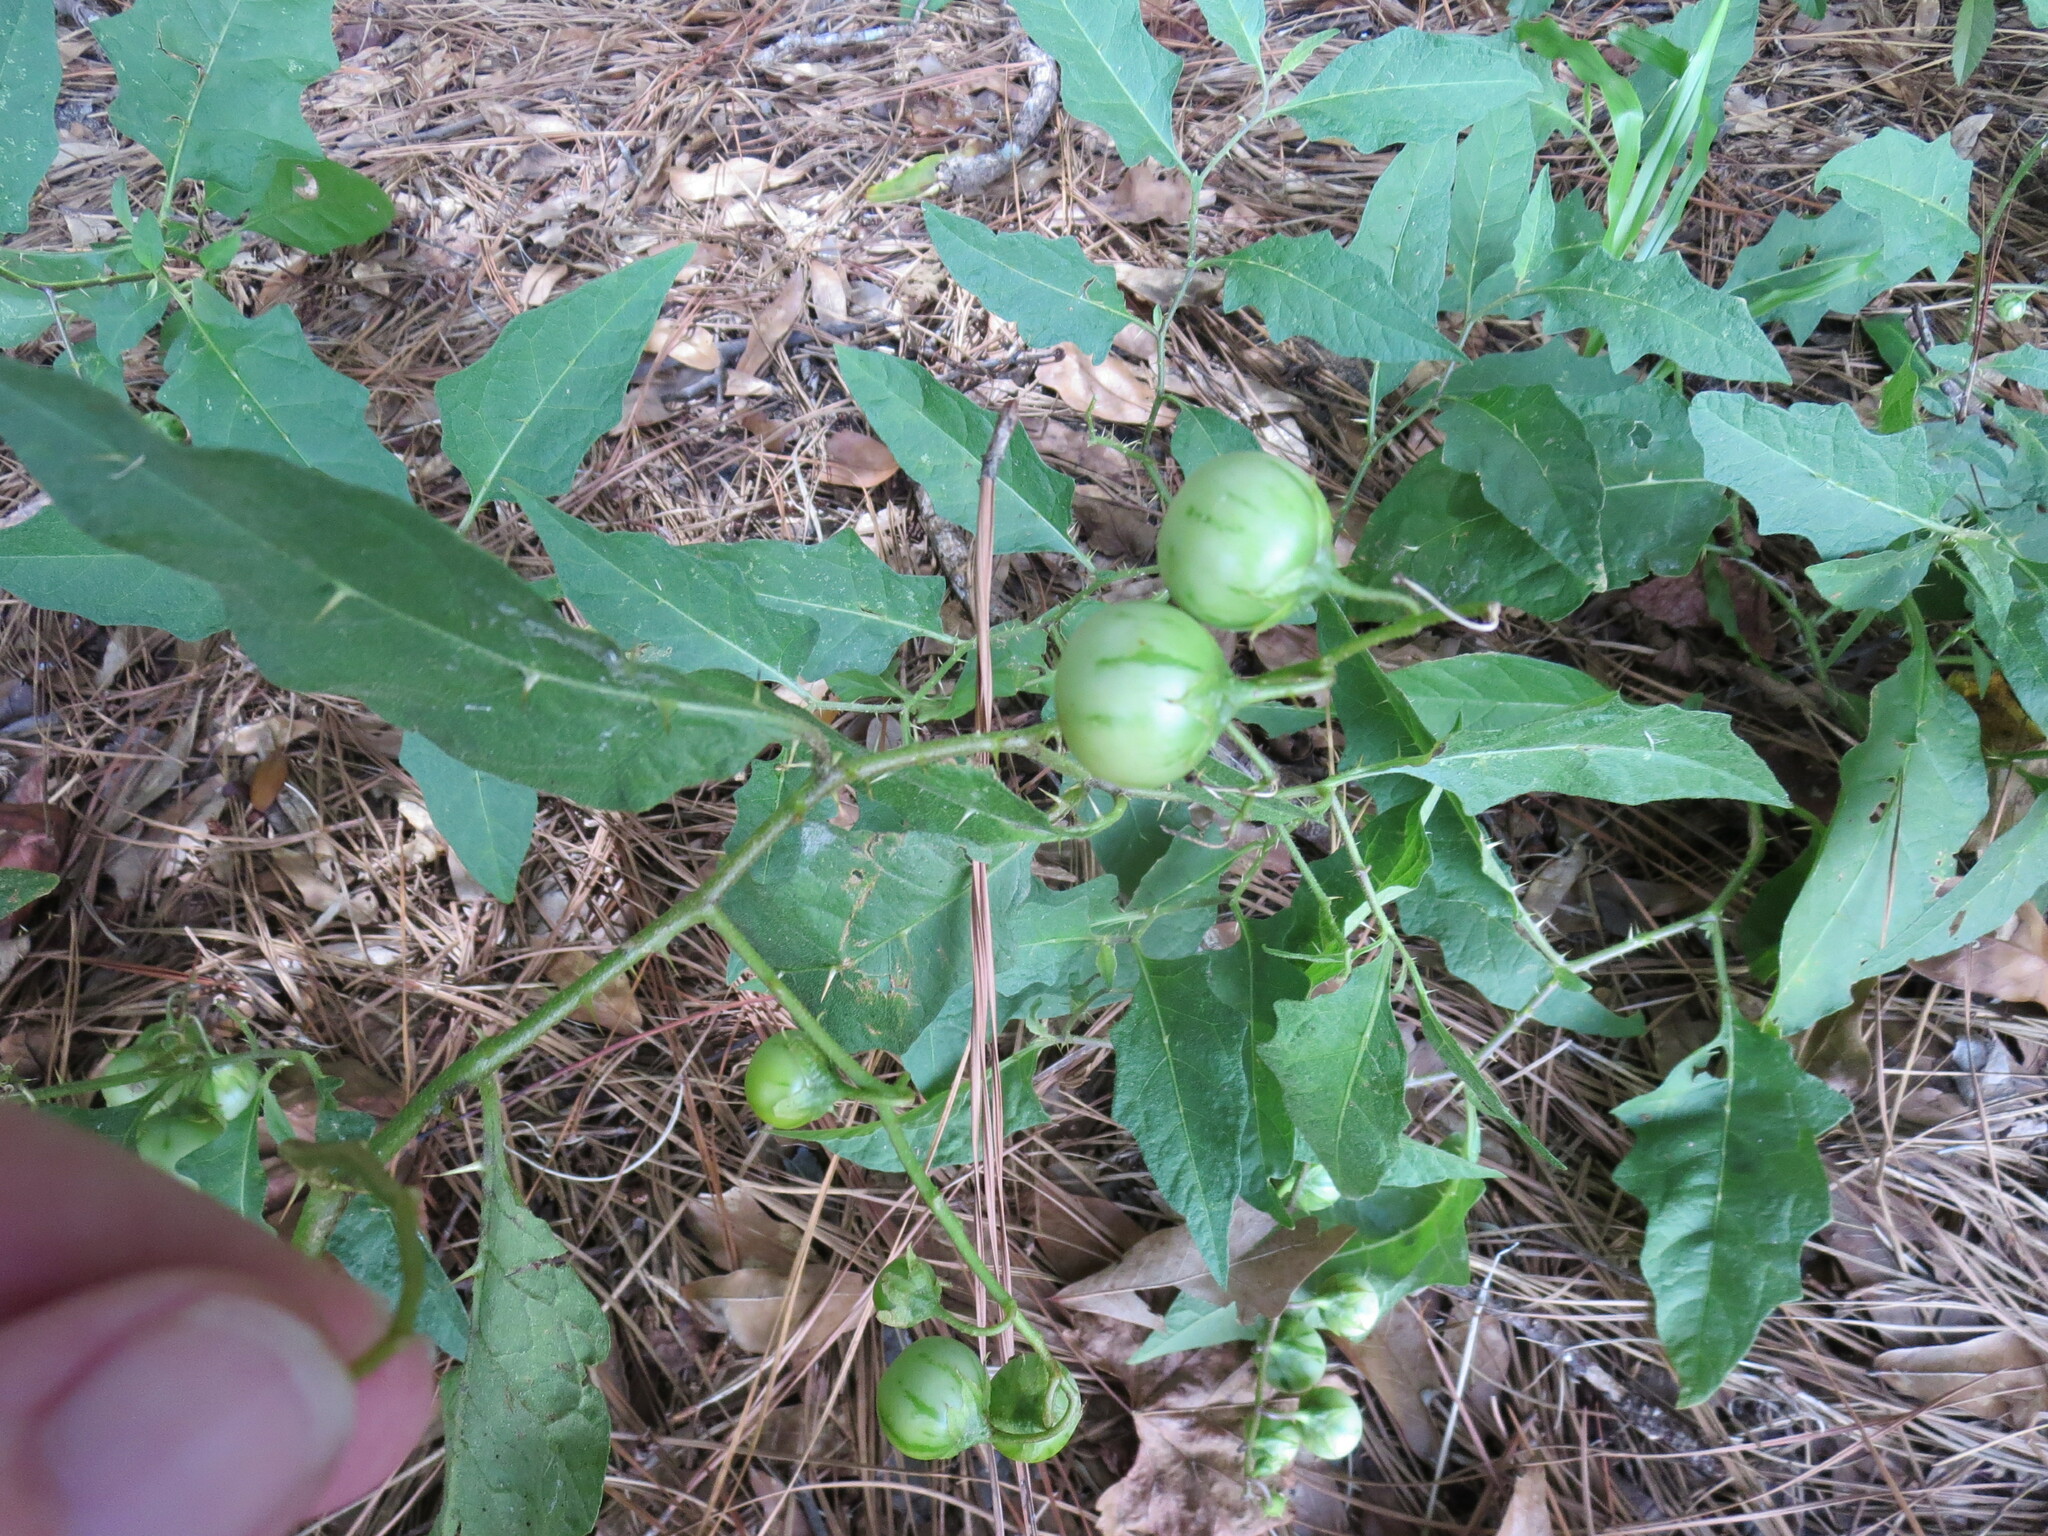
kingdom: Plantae
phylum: Tracheophyta
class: Magnoliopsida
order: Solanales
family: Solanaceae
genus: Solanum
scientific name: Solanum carolinense
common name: Horse-nettle
